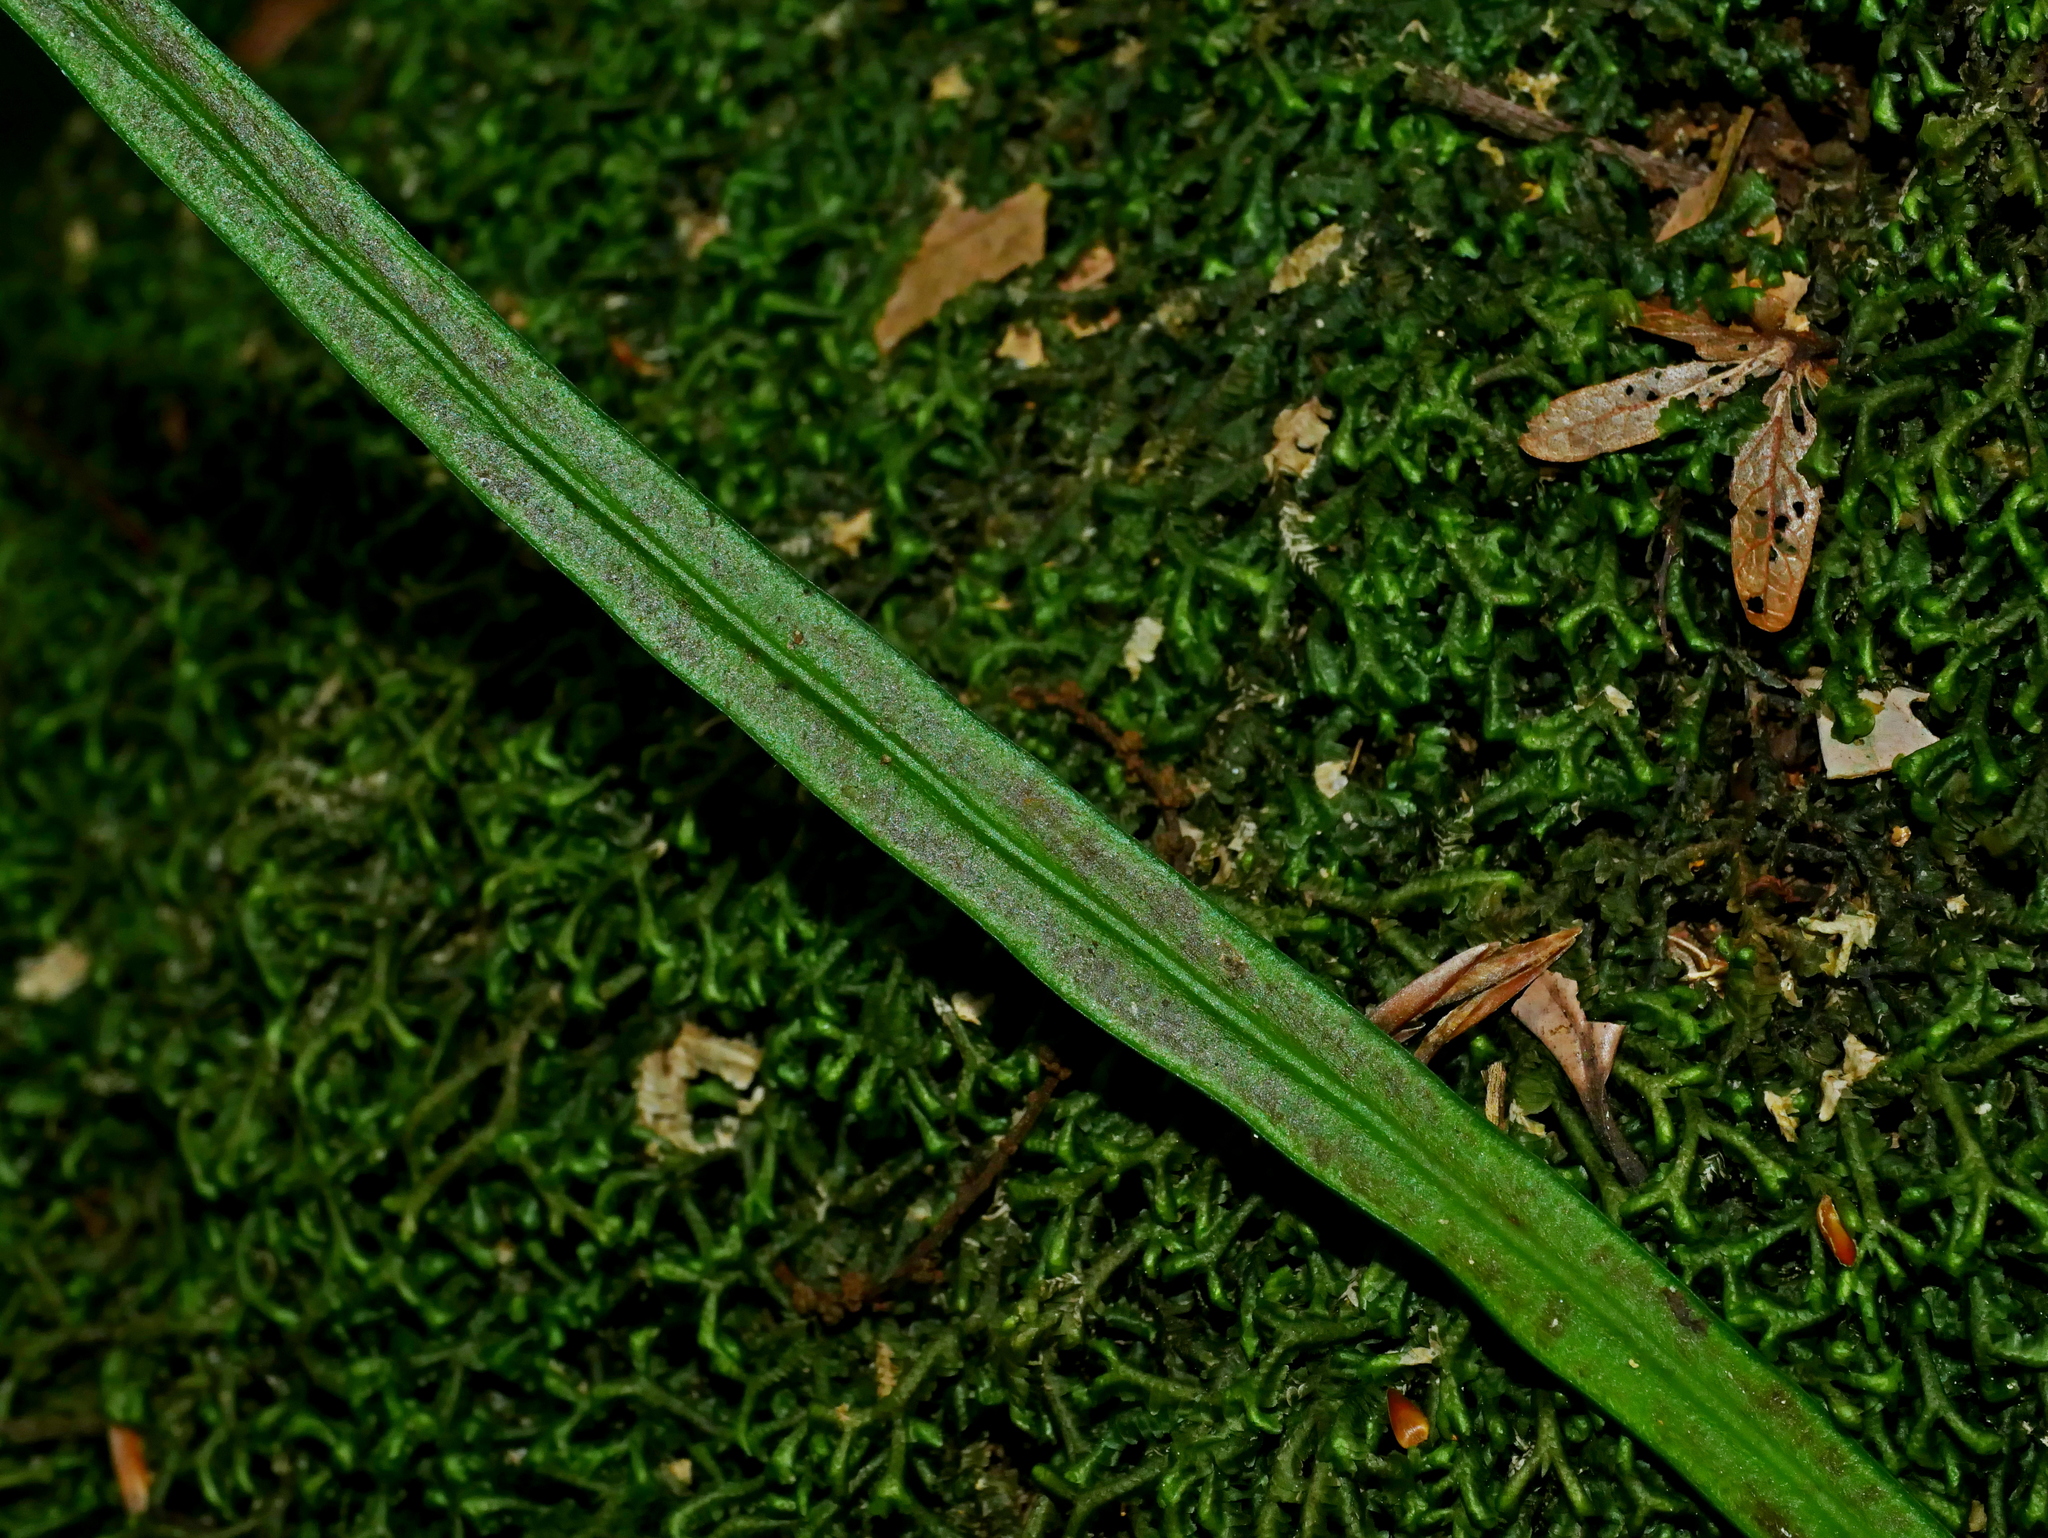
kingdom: Plantae
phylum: Tracheophyta
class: Polypodiopsida
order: Polypodiales
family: Pteridaceae
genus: Haplopteris
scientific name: Haplopteris flexuosa
